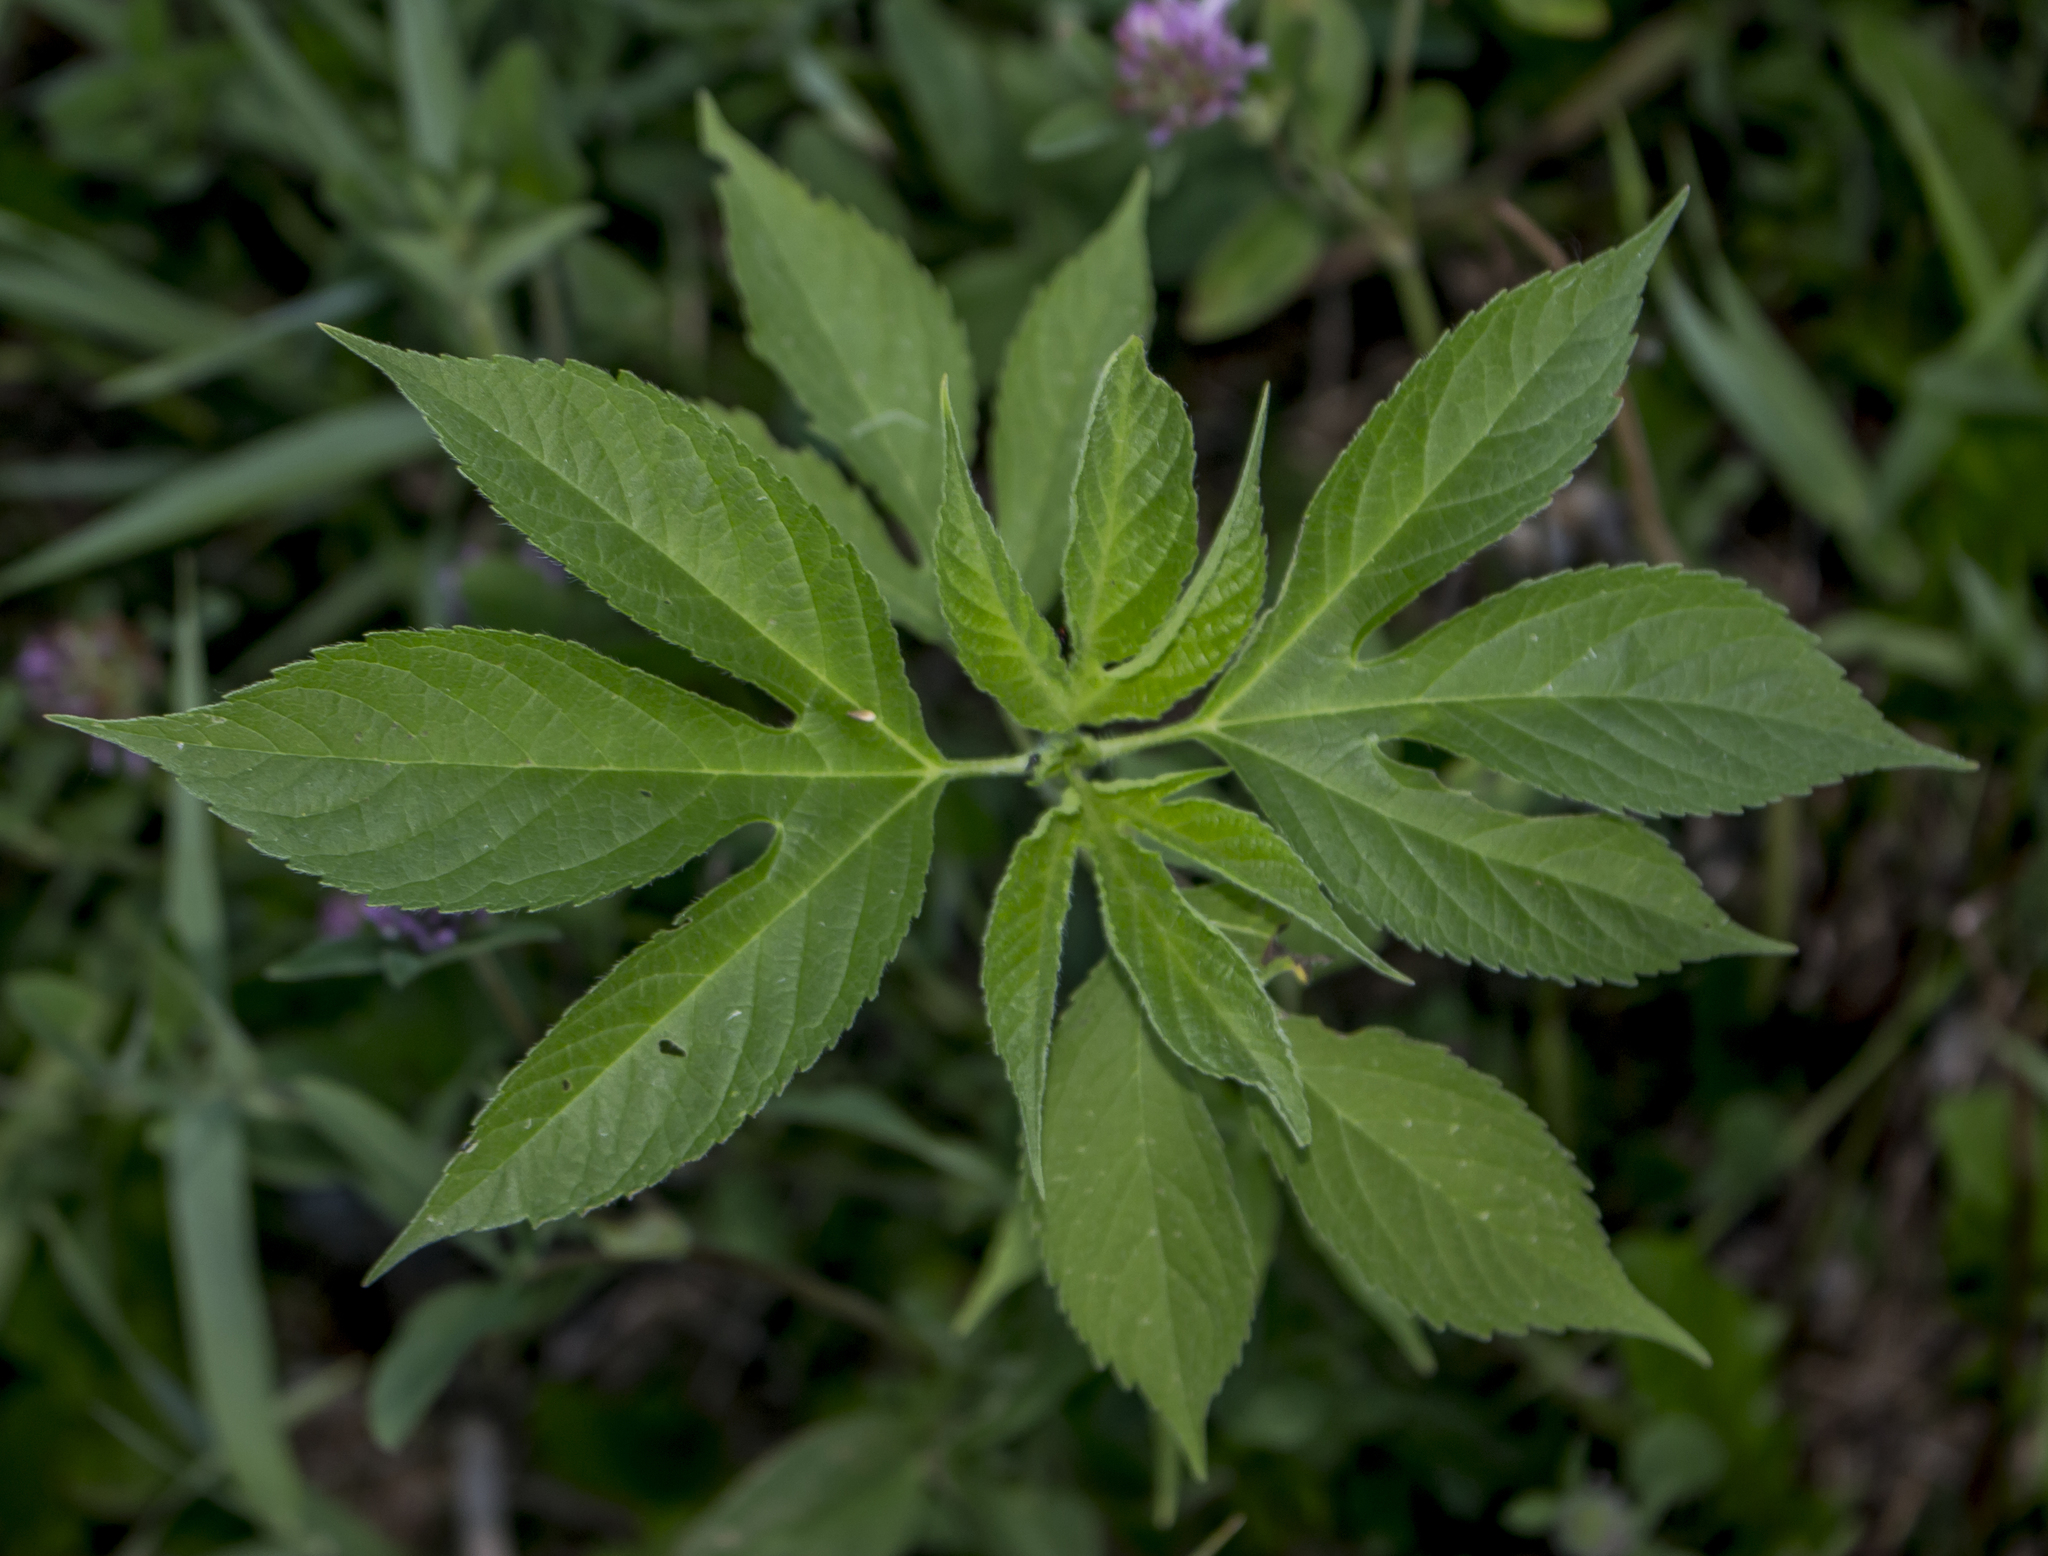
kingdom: Plantae
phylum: Tracheophyta
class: Magnoliopsida
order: Asterales
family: Asteraceae
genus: Ambrosia
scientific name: Ambrosia trifida
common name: Giant ragweed
